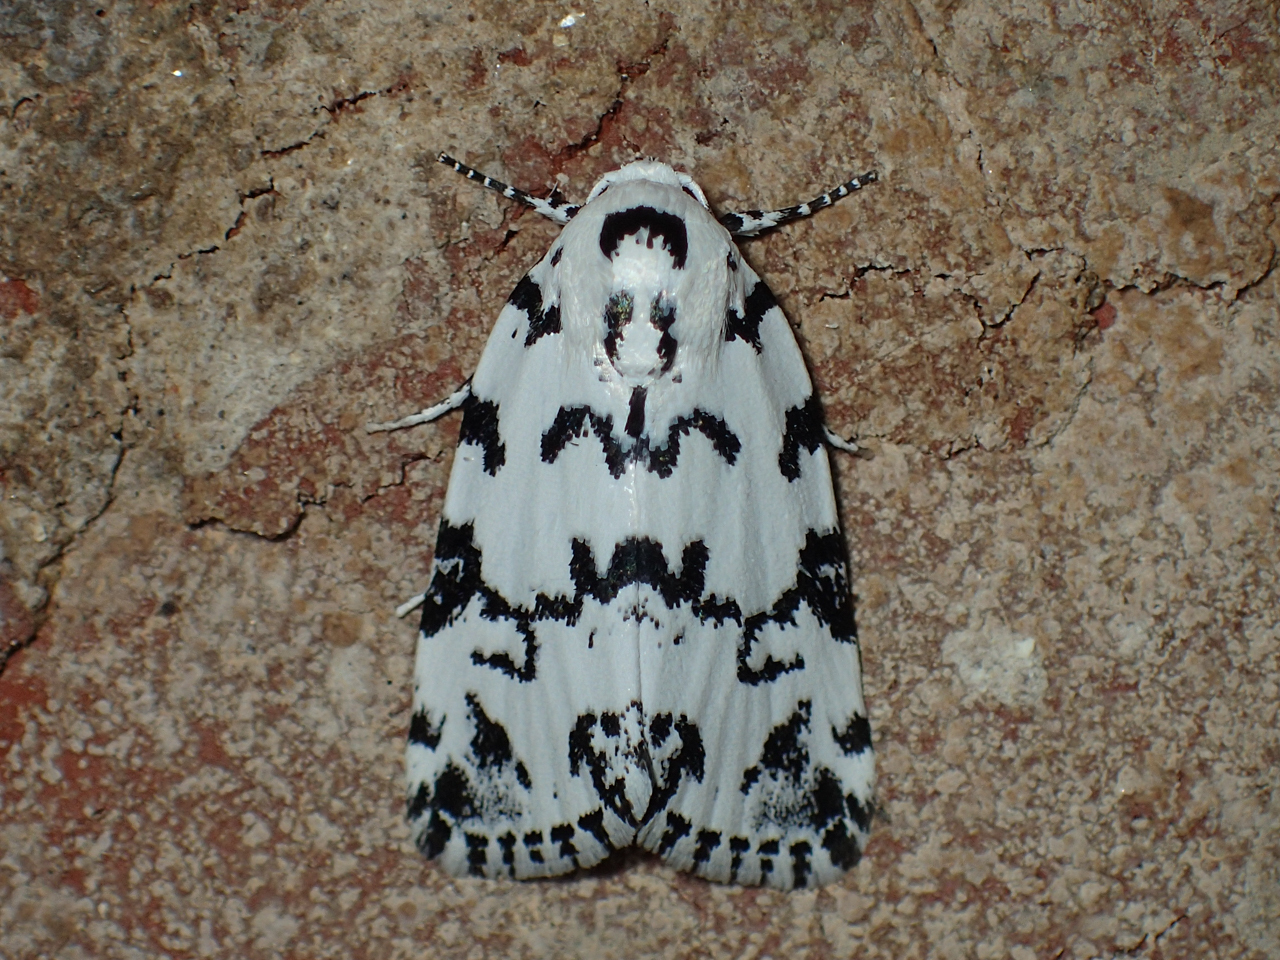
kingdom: Animalia
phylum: Arthropoda
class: Insecta
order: Lepidoptera
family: Noctuidae
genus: Polygrammate
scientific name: Polygrammate hebraeicum
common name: Hebrew moth
